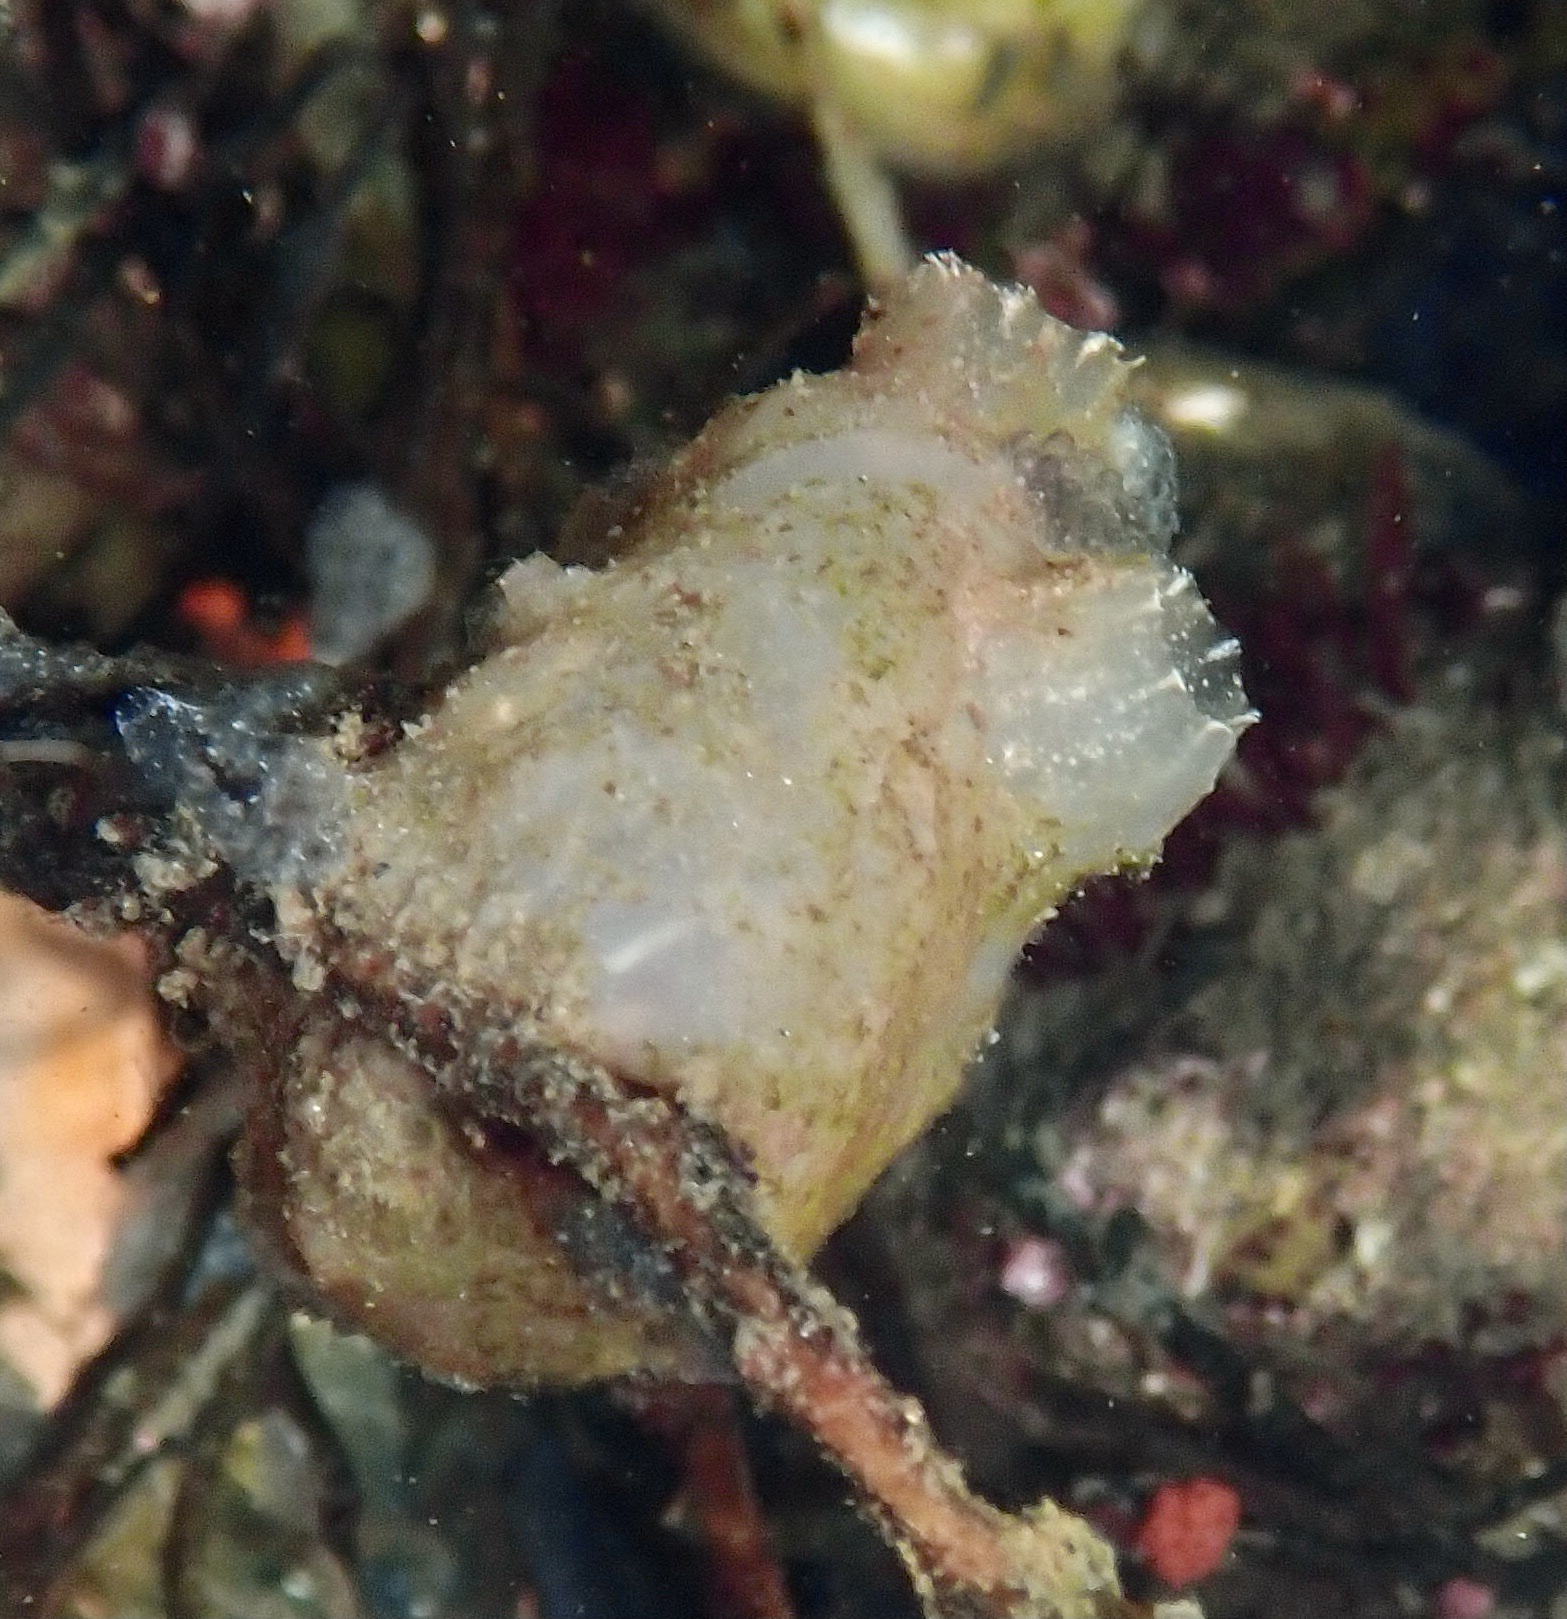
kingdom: Animalia
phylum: Chordata
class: Ascidiacea
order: Phlebobranchia
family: Ascidiidae
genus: Ascidiella
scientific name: Ascidiella aspersa
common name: Dirty sea-squirt
